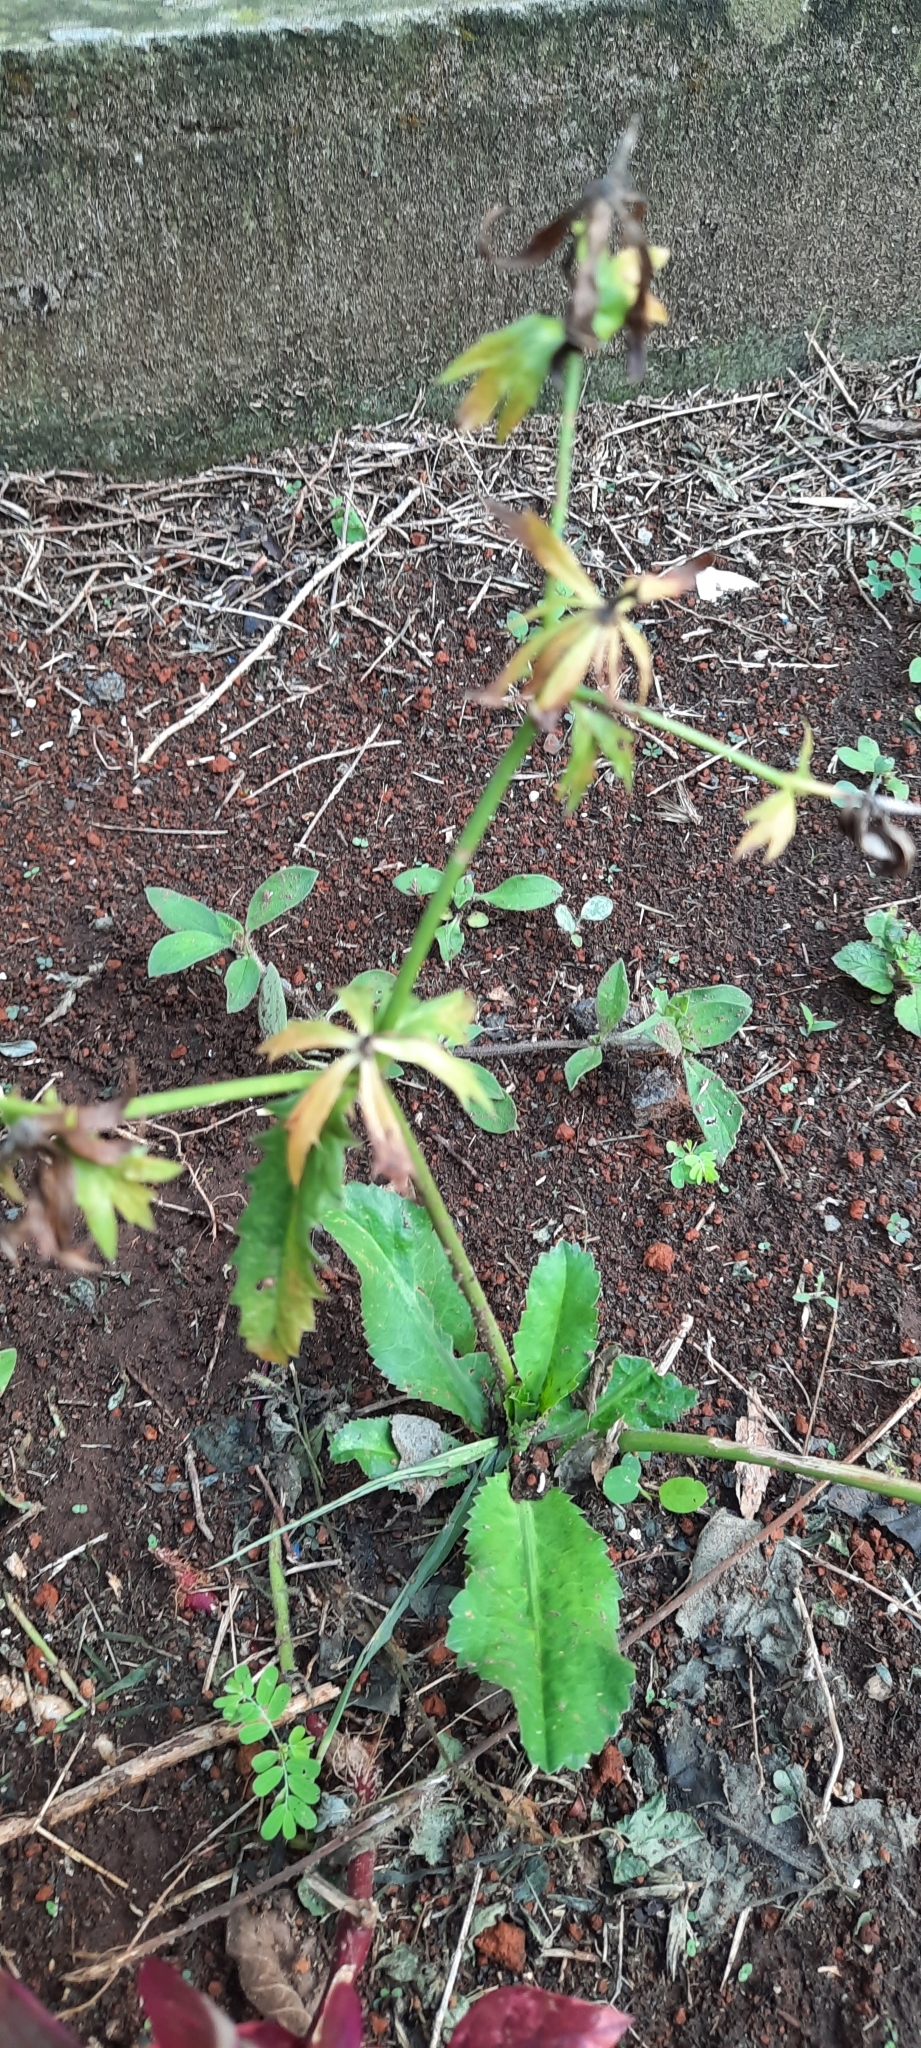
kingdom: Plantae
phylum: Tracheophyta
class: Magnoliopsida
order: Apiales
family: Apiaceae
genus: Eryngium
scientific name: Eryngium foetidum
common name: Fitweed
